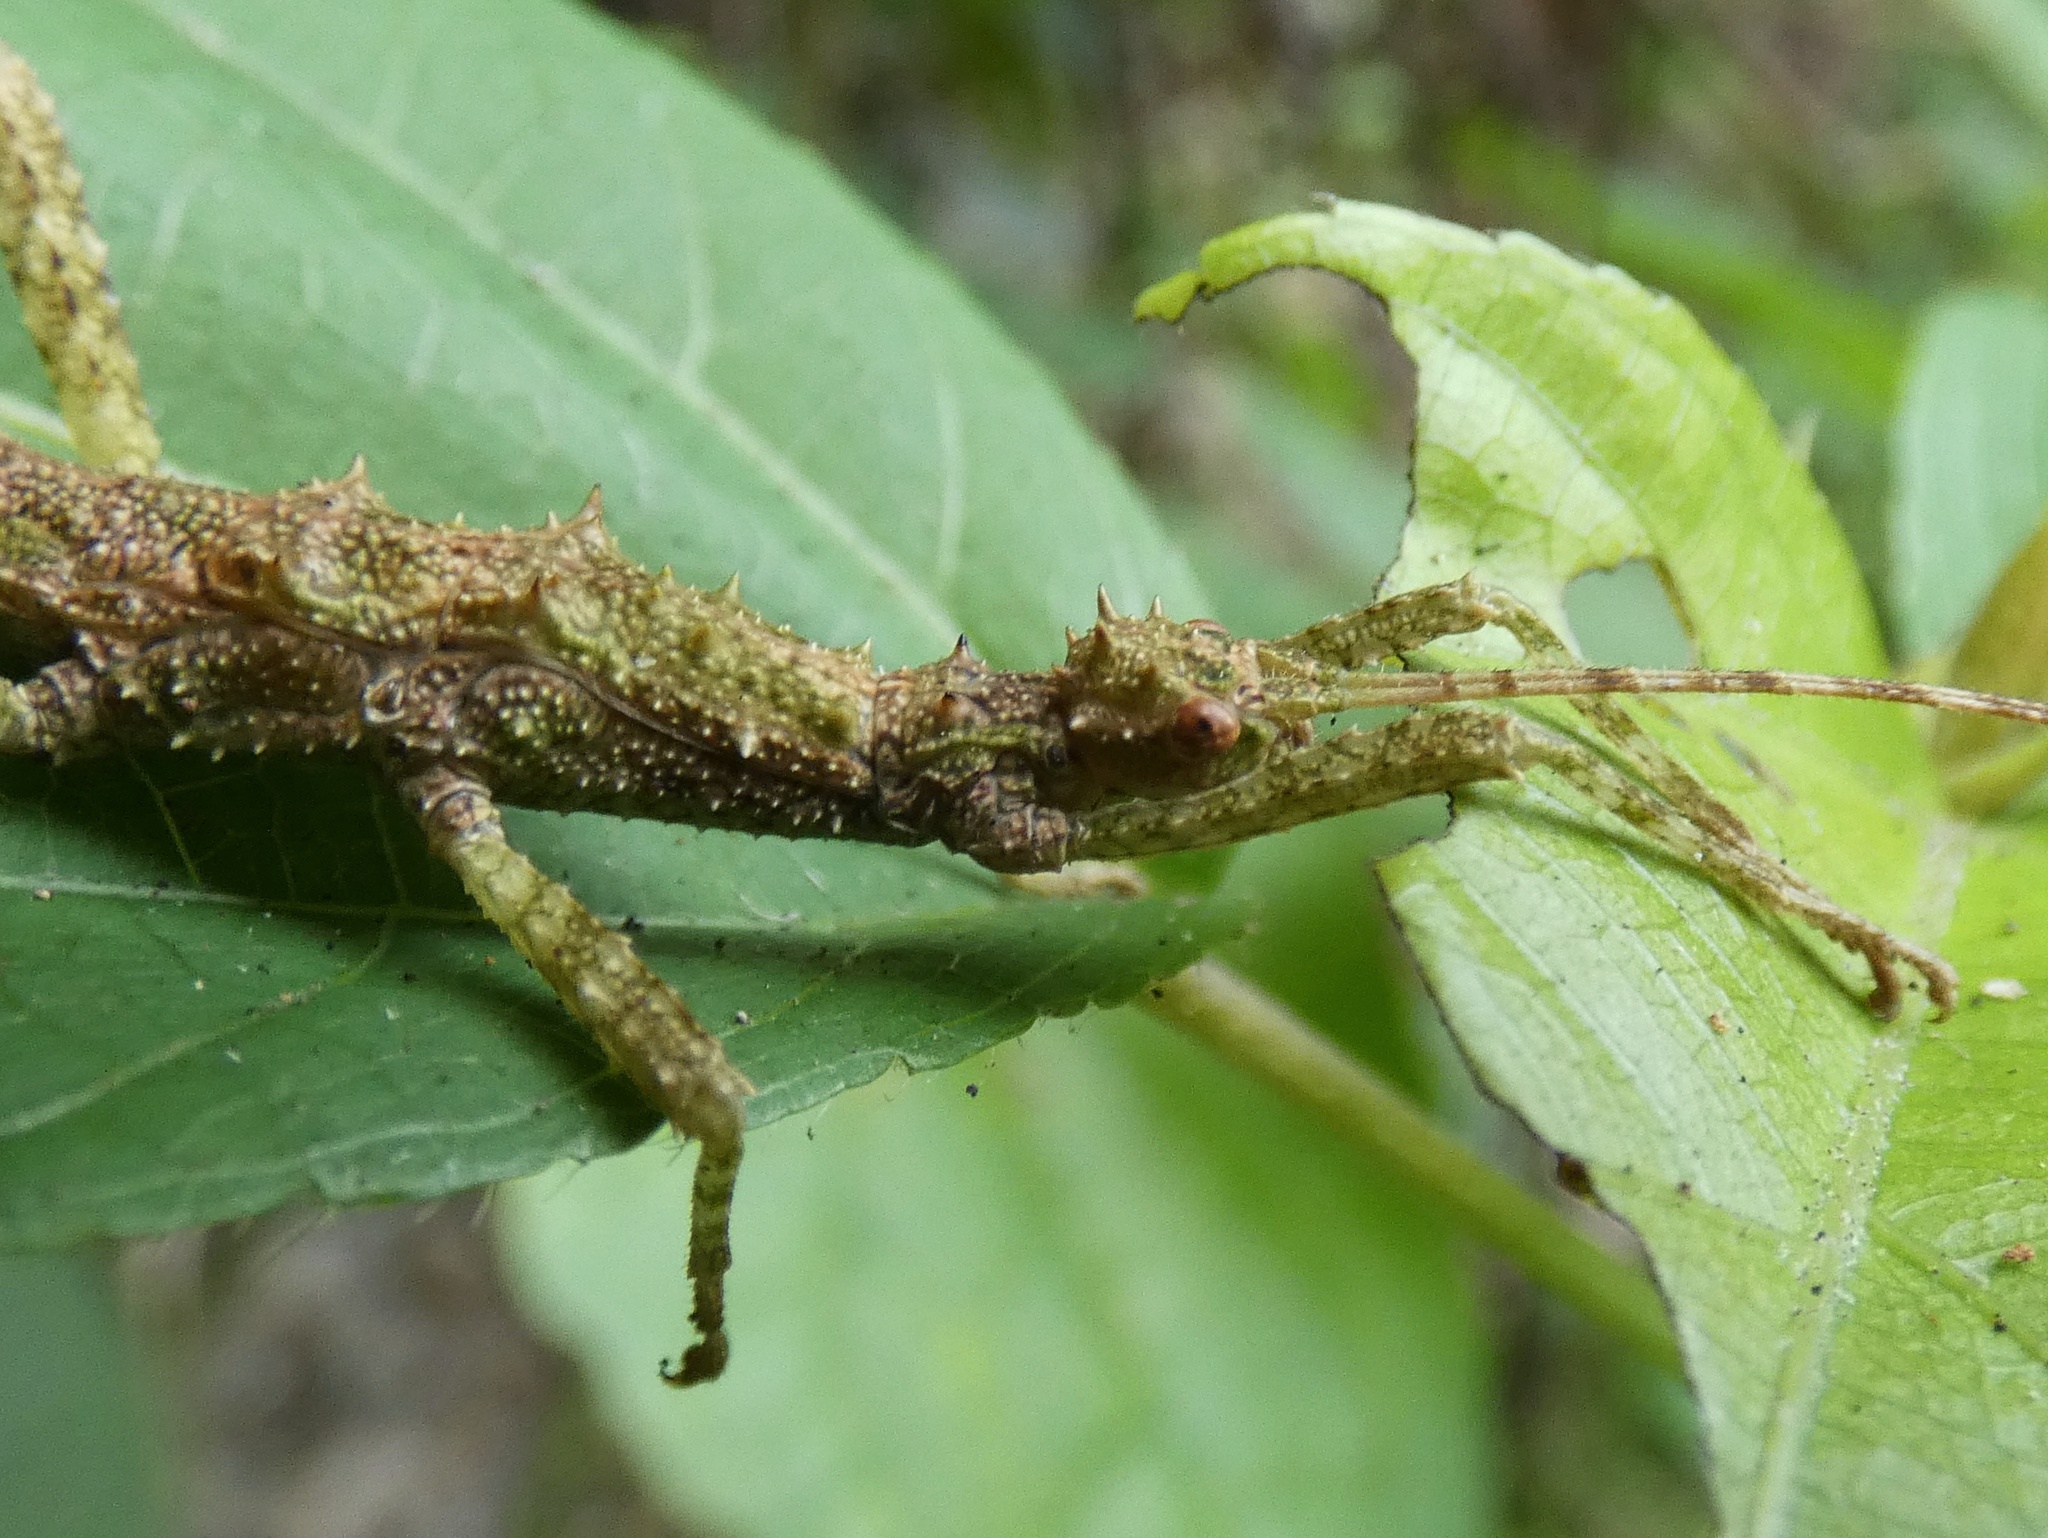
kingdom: Animalia
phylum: Arthropoda
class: Insecta
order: Phasmida
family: Heteropterygidae
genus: Obrimus
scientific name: Obrimus bicolanus
